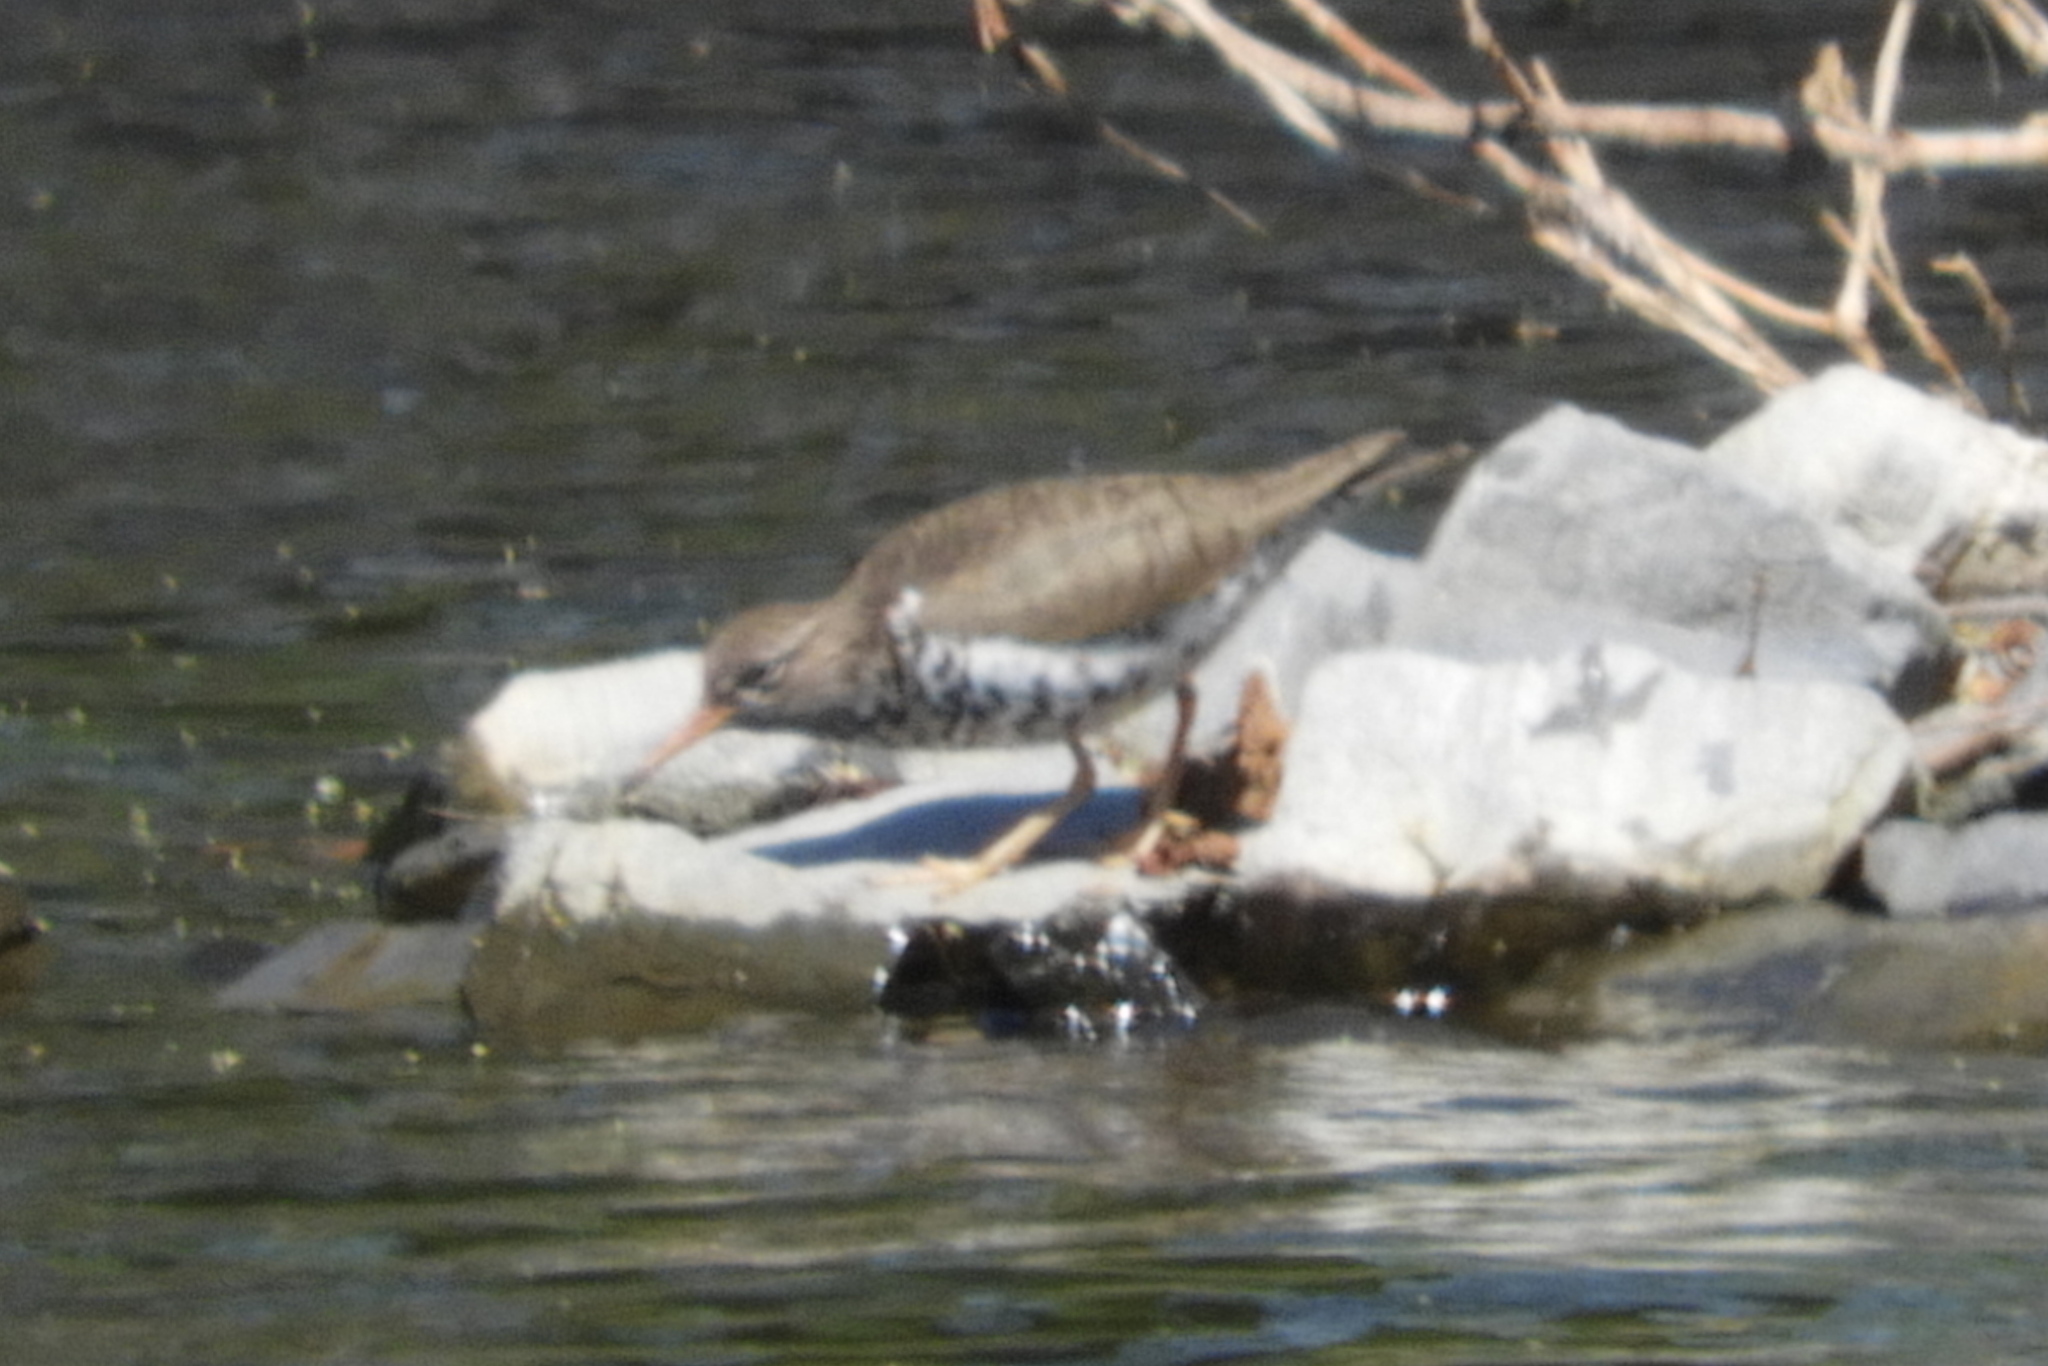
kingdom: Animalia
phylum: Chordata
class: Aves
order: Charadriiformes
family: Scolopacidae
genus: Actitis
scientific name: Actitis macularius
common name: Spotted sandpiper
